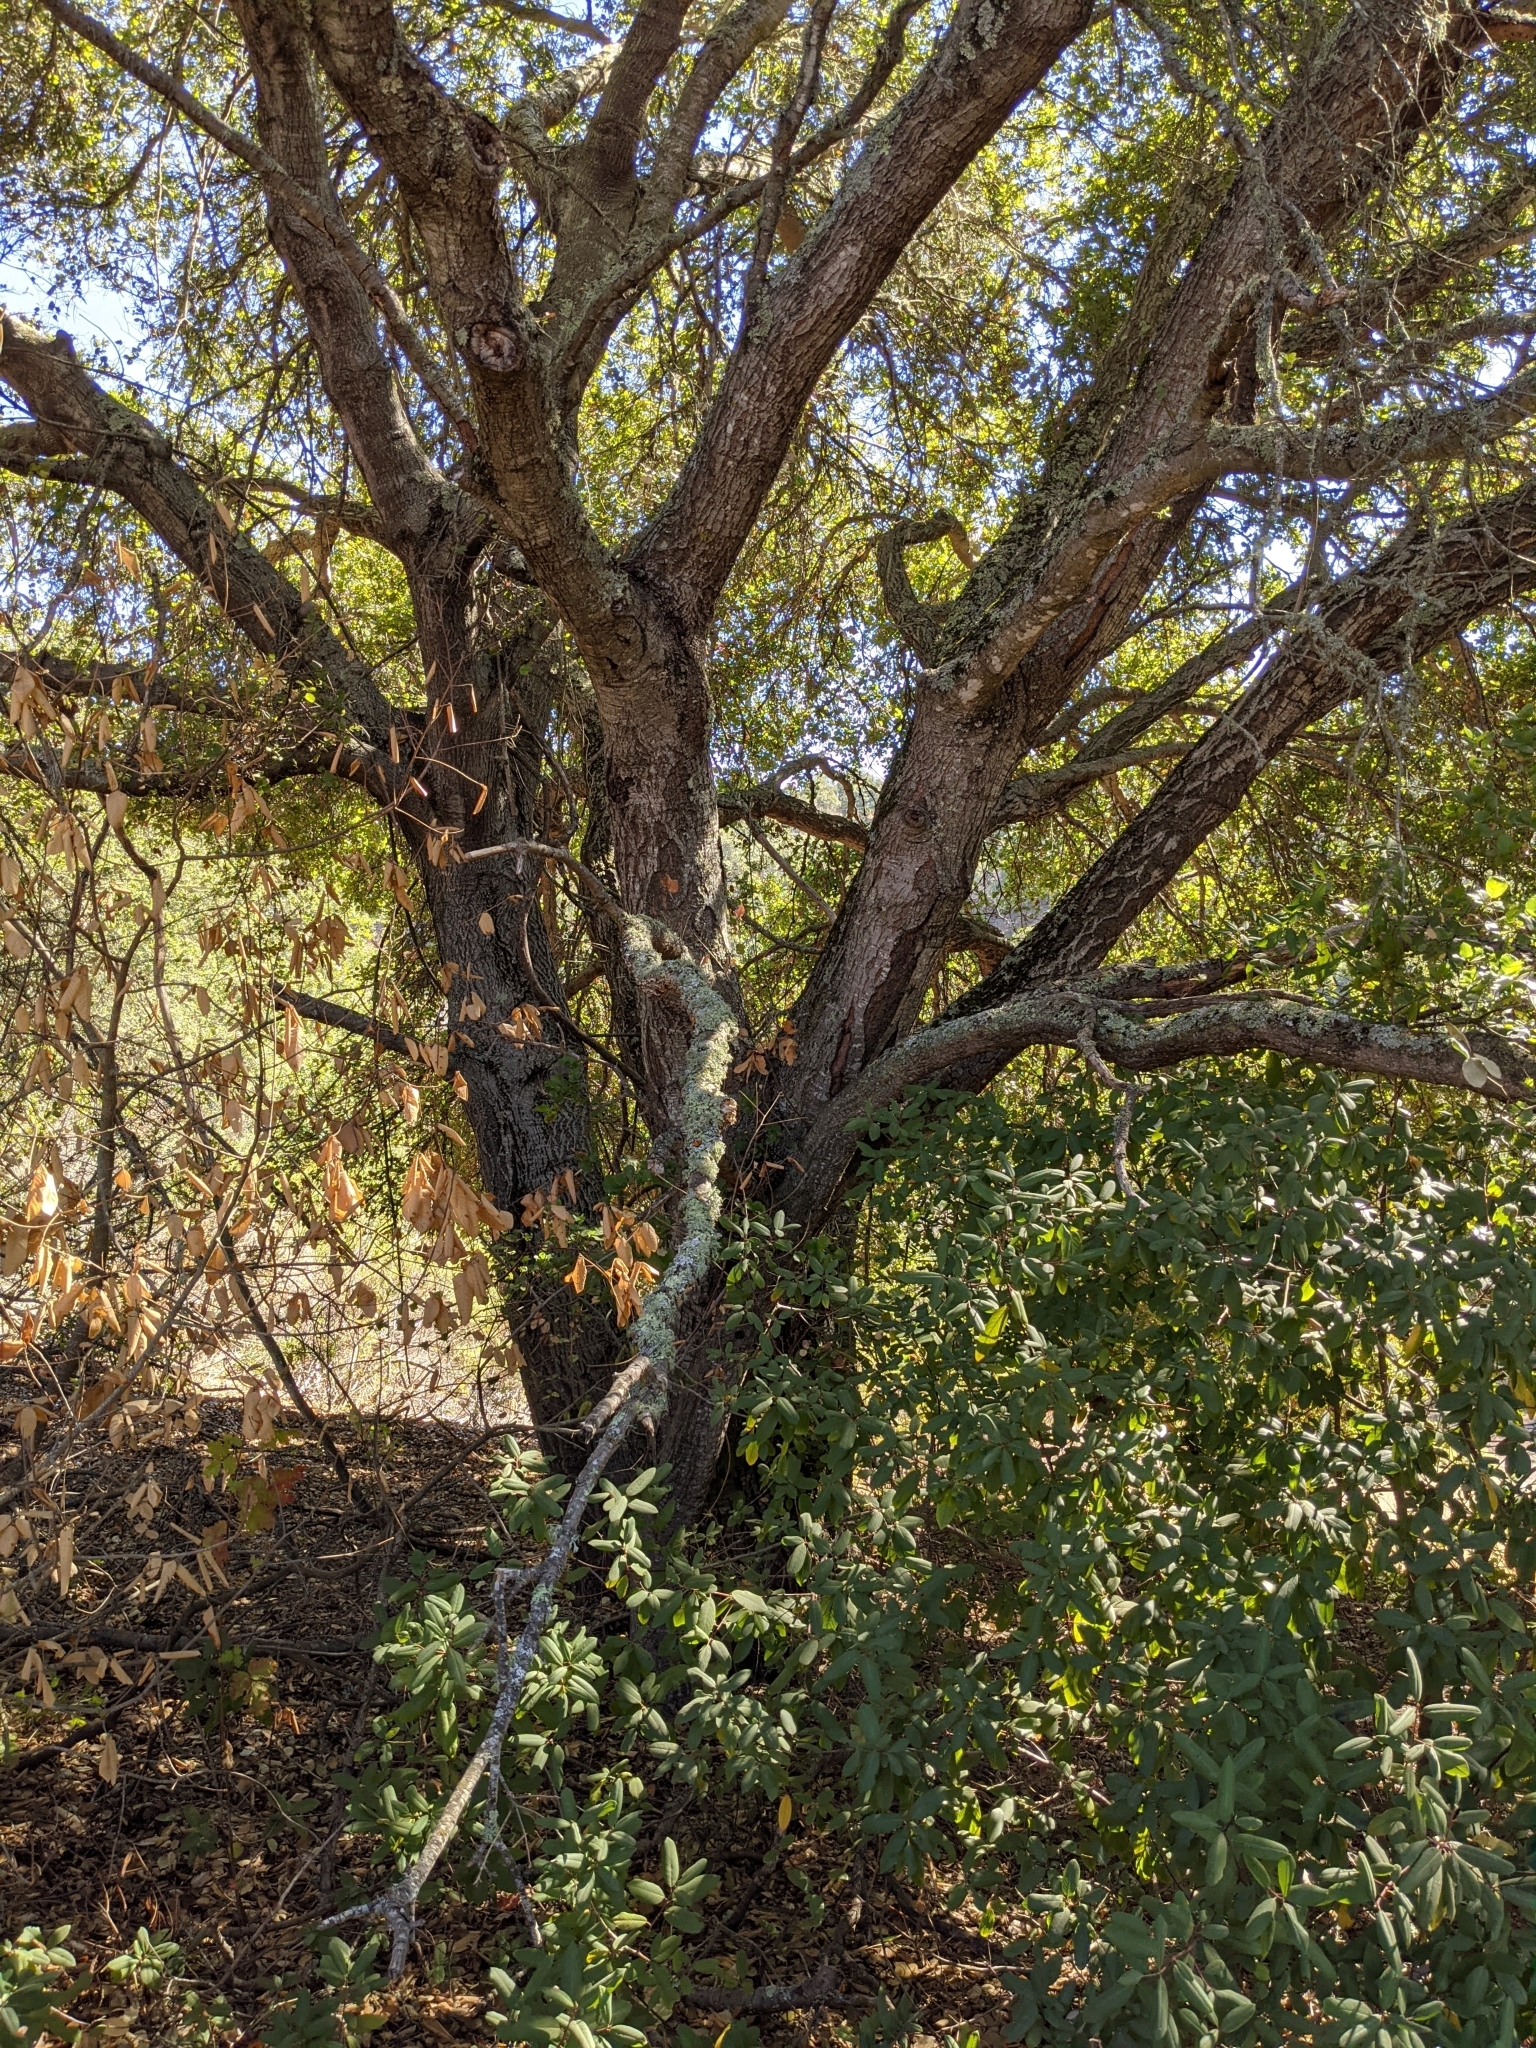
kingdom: Plantae
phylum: Tracheophyta
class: Magnoliopsida
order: Fagales
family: Fagaceae
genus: Quercus
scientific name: Quercus agrifolia
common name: California live oak
